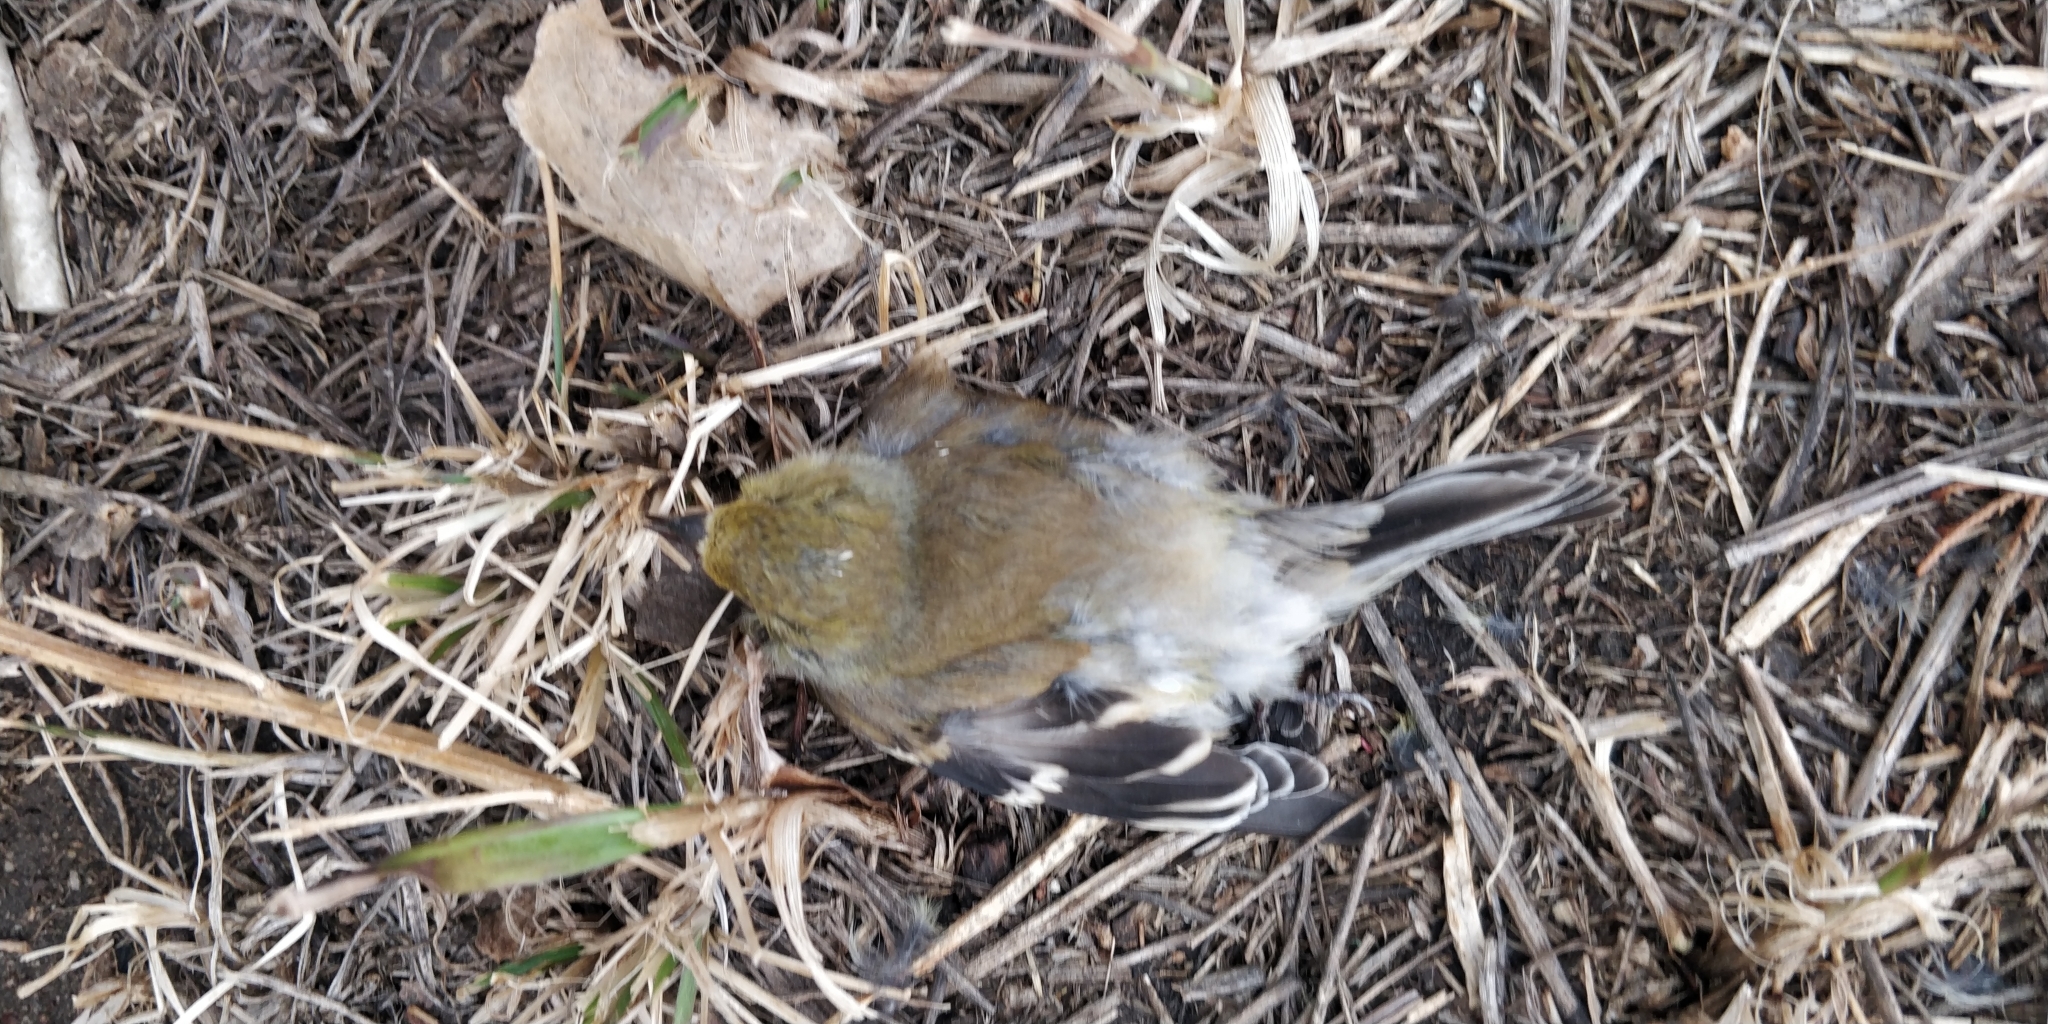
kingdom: Animalia
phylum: Chordata
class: Aves
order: Passeriformes
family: Fringillidae
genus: Spinus
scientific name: Spinus tristis
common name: American goldfinch
